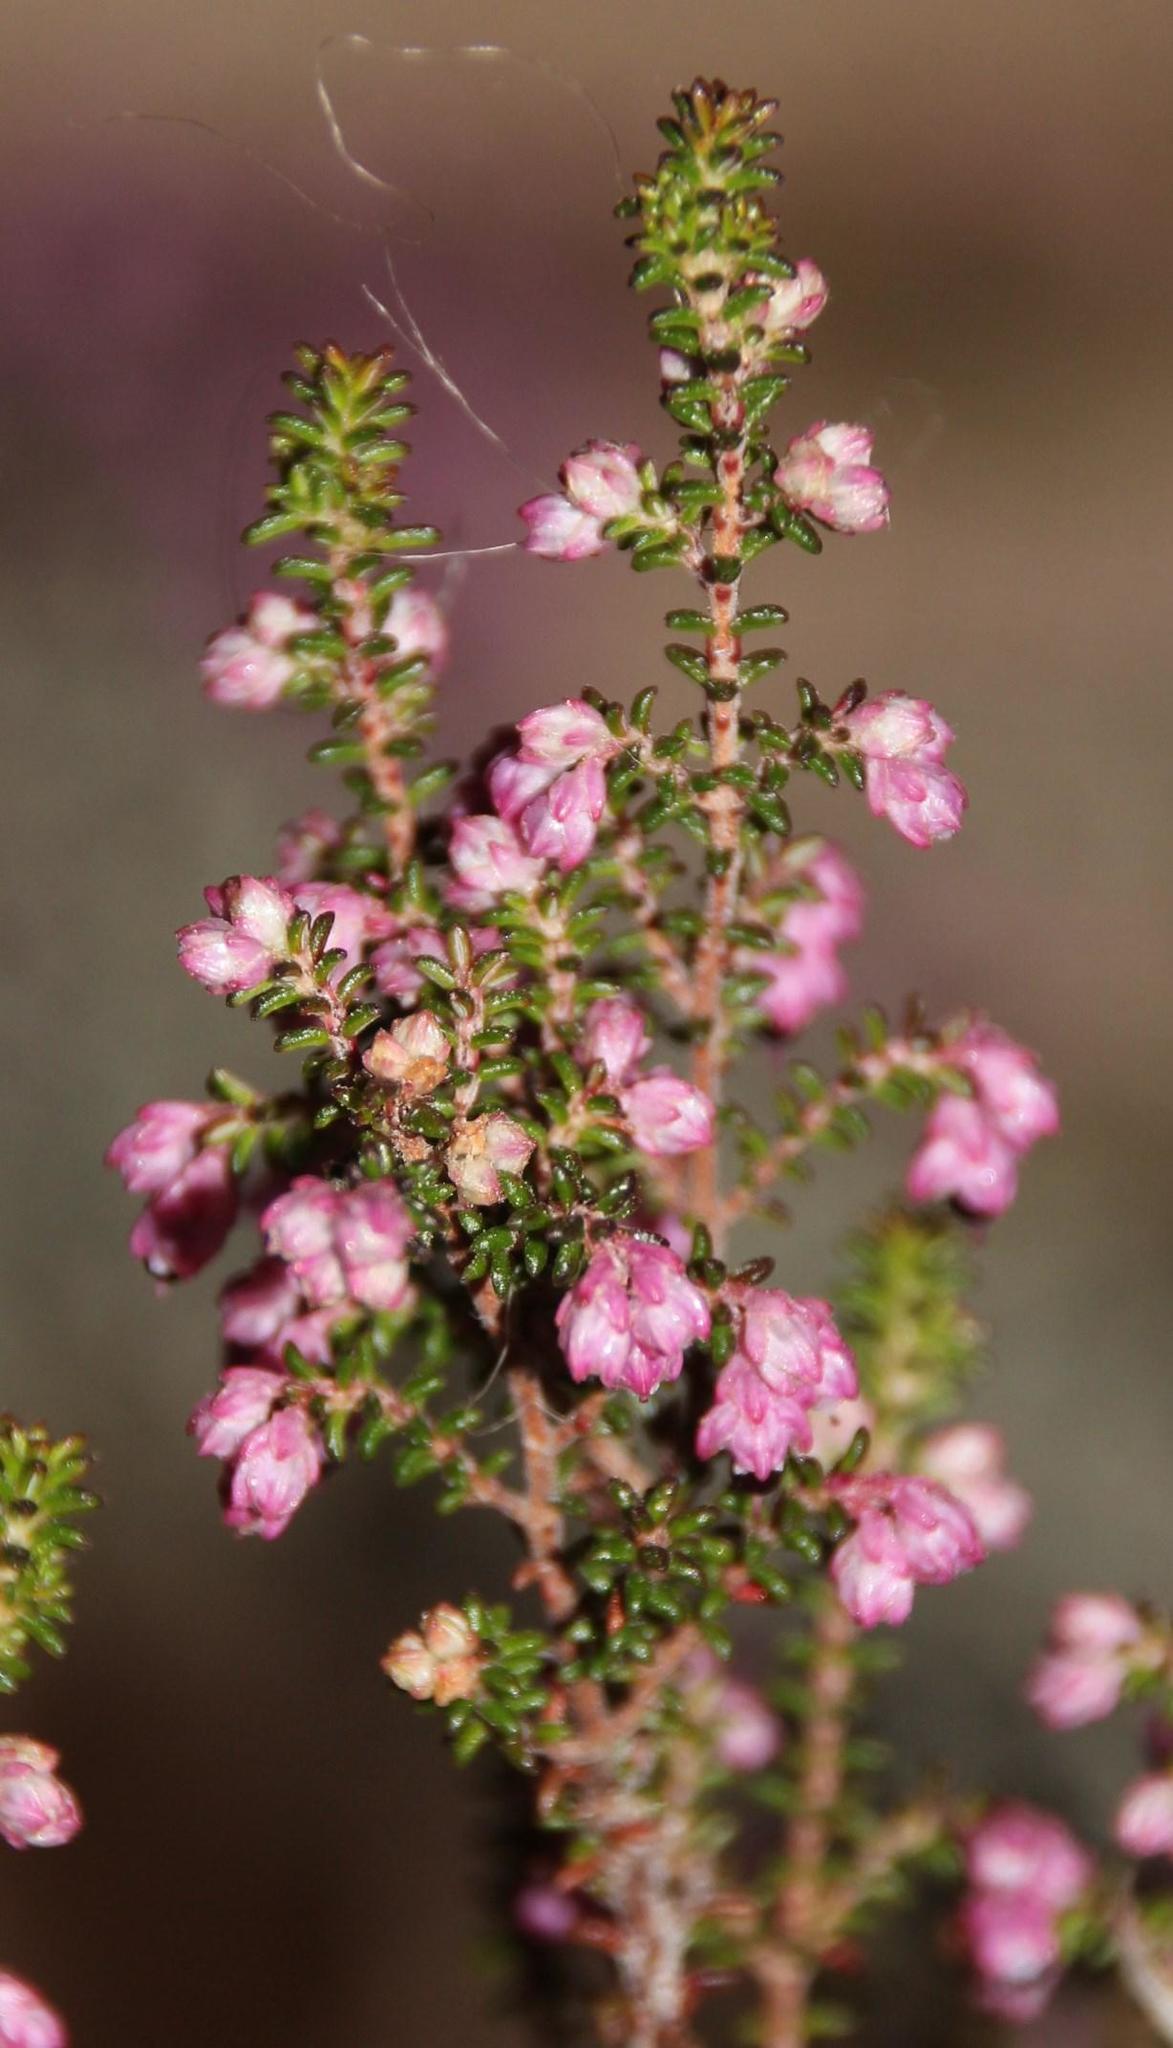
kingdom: Plantae
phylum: Tracheophyta
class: Magnoliopsida
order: Ericales
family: Ericaceae
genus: Erica
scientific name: Erica placentiflora
